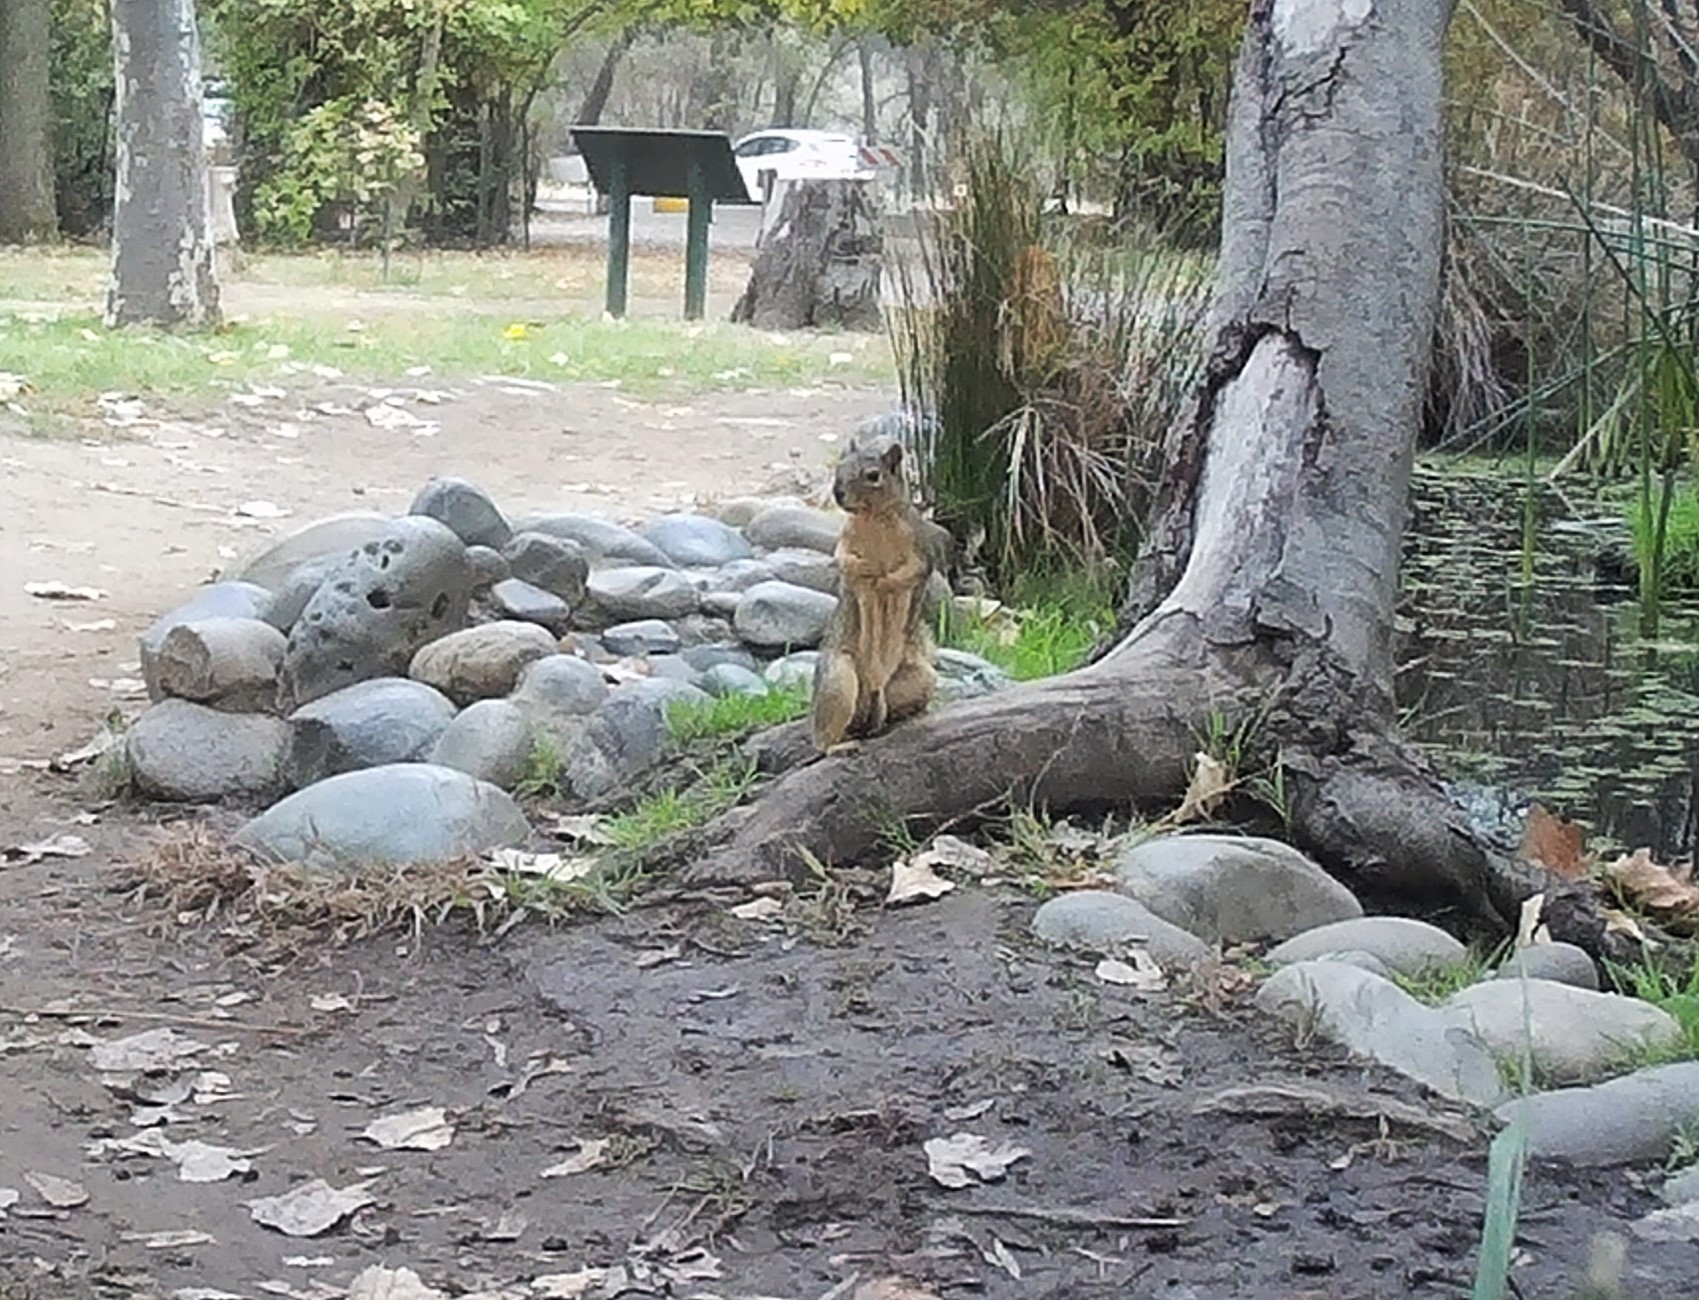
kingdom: Animalia
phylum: Chordata
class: Mammalia
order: Rodentia
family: Sciuridae
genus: Sciurus
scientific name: Sciurus niger
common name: Fox squirrel
